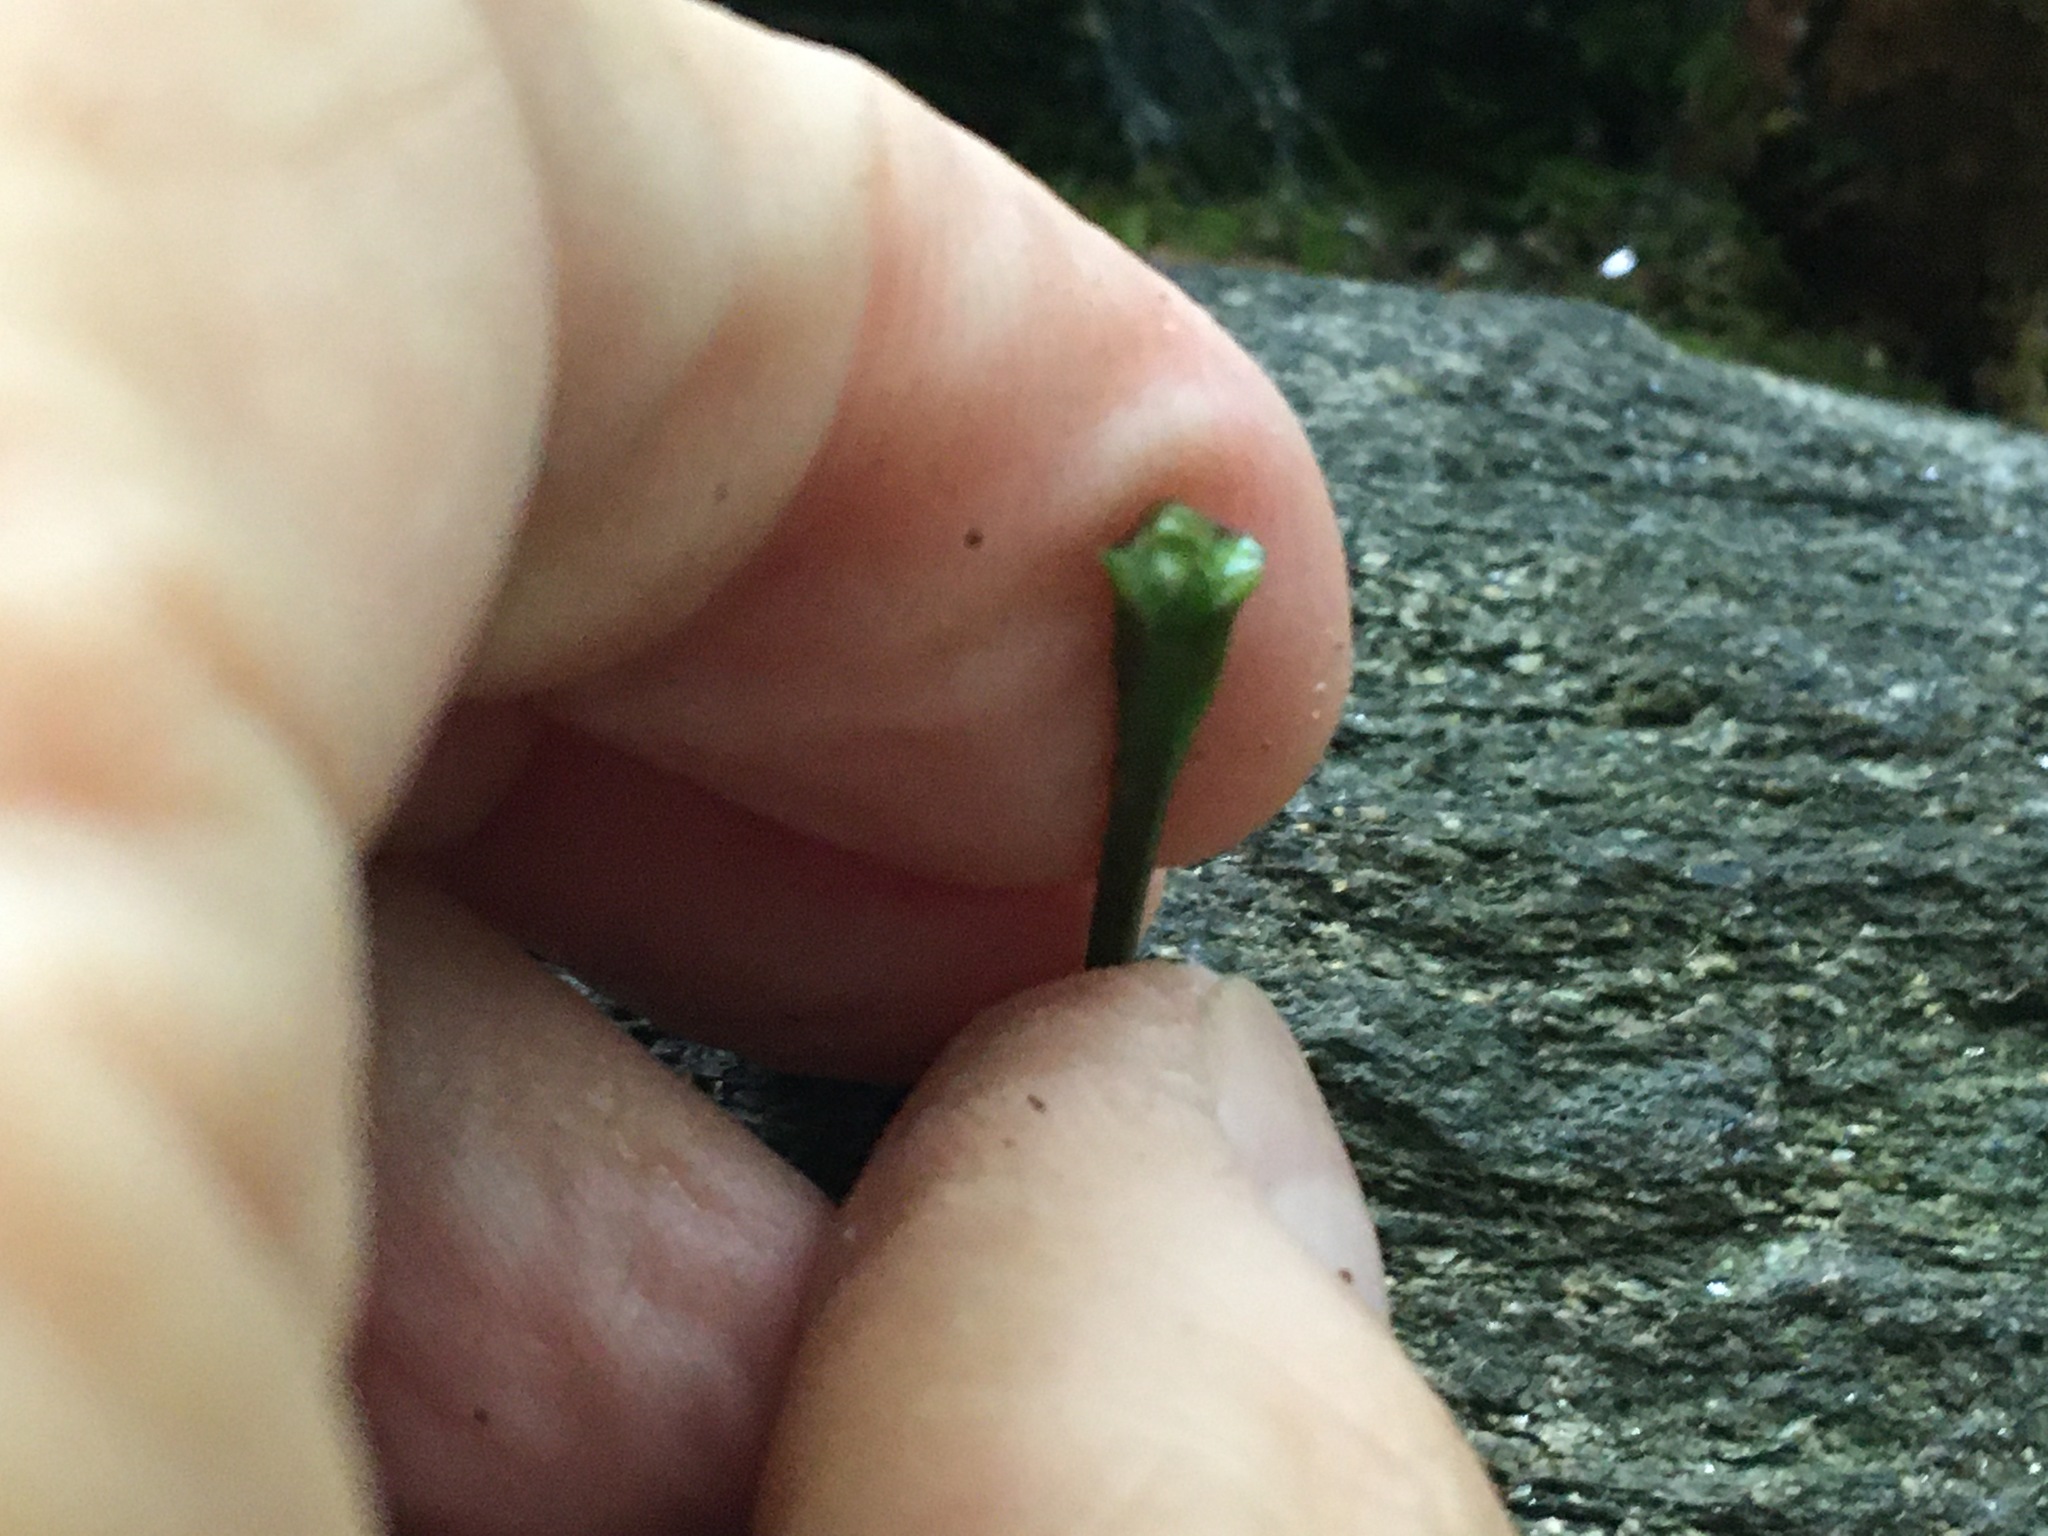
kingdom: Plantae
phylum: Tracheophyta
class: Magnoliopsida
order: Sapindales
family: Sapindaceae
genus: Acer
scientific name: Acer platanoides
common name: Norway maple
